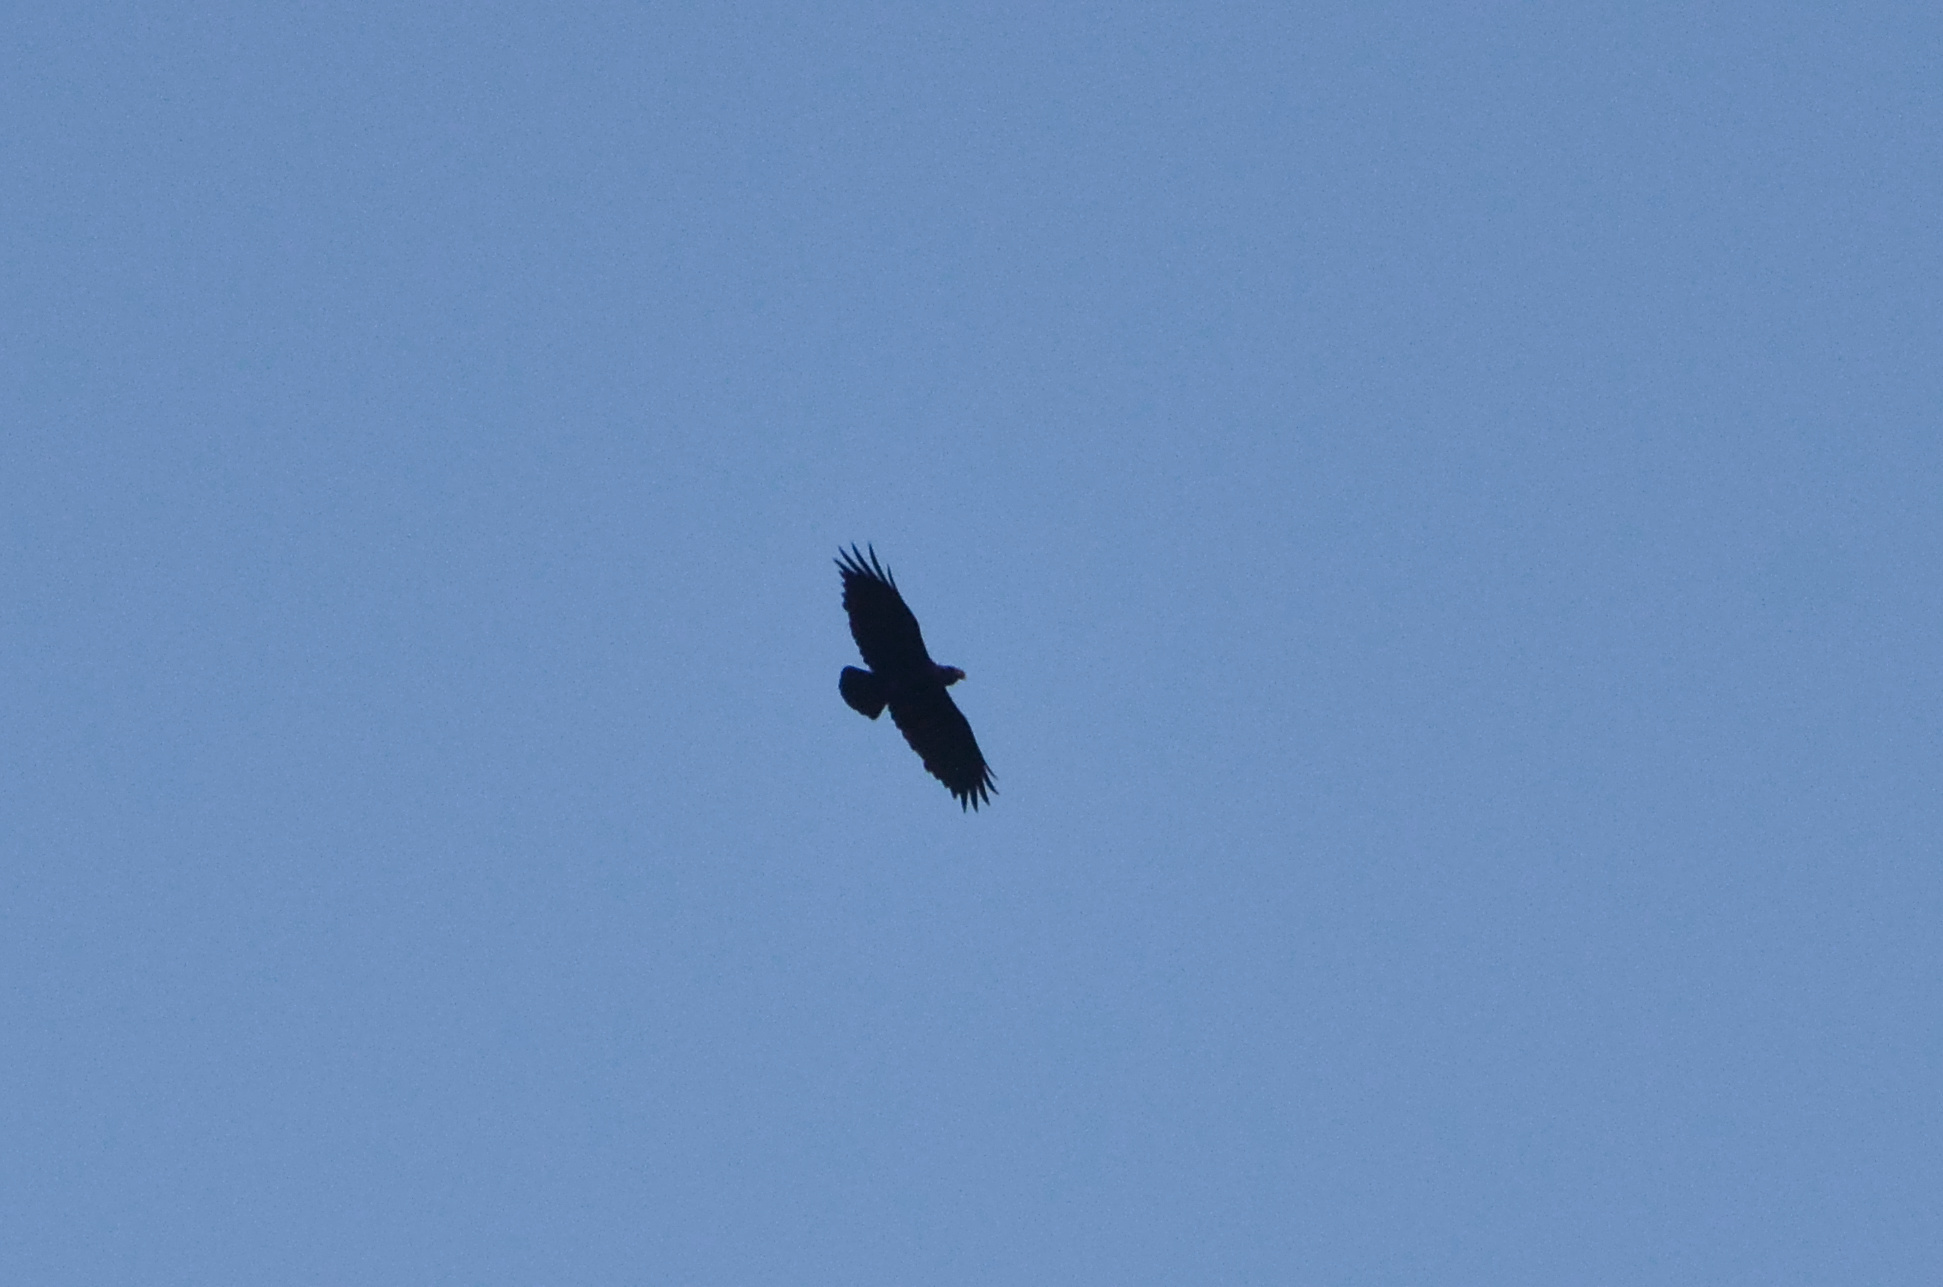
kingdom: Animalia
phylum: Chordata
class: Aves
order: Passeriformes
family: Corvidae
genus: Corvus
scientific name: Corvus albicollis
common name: White-necked raven
